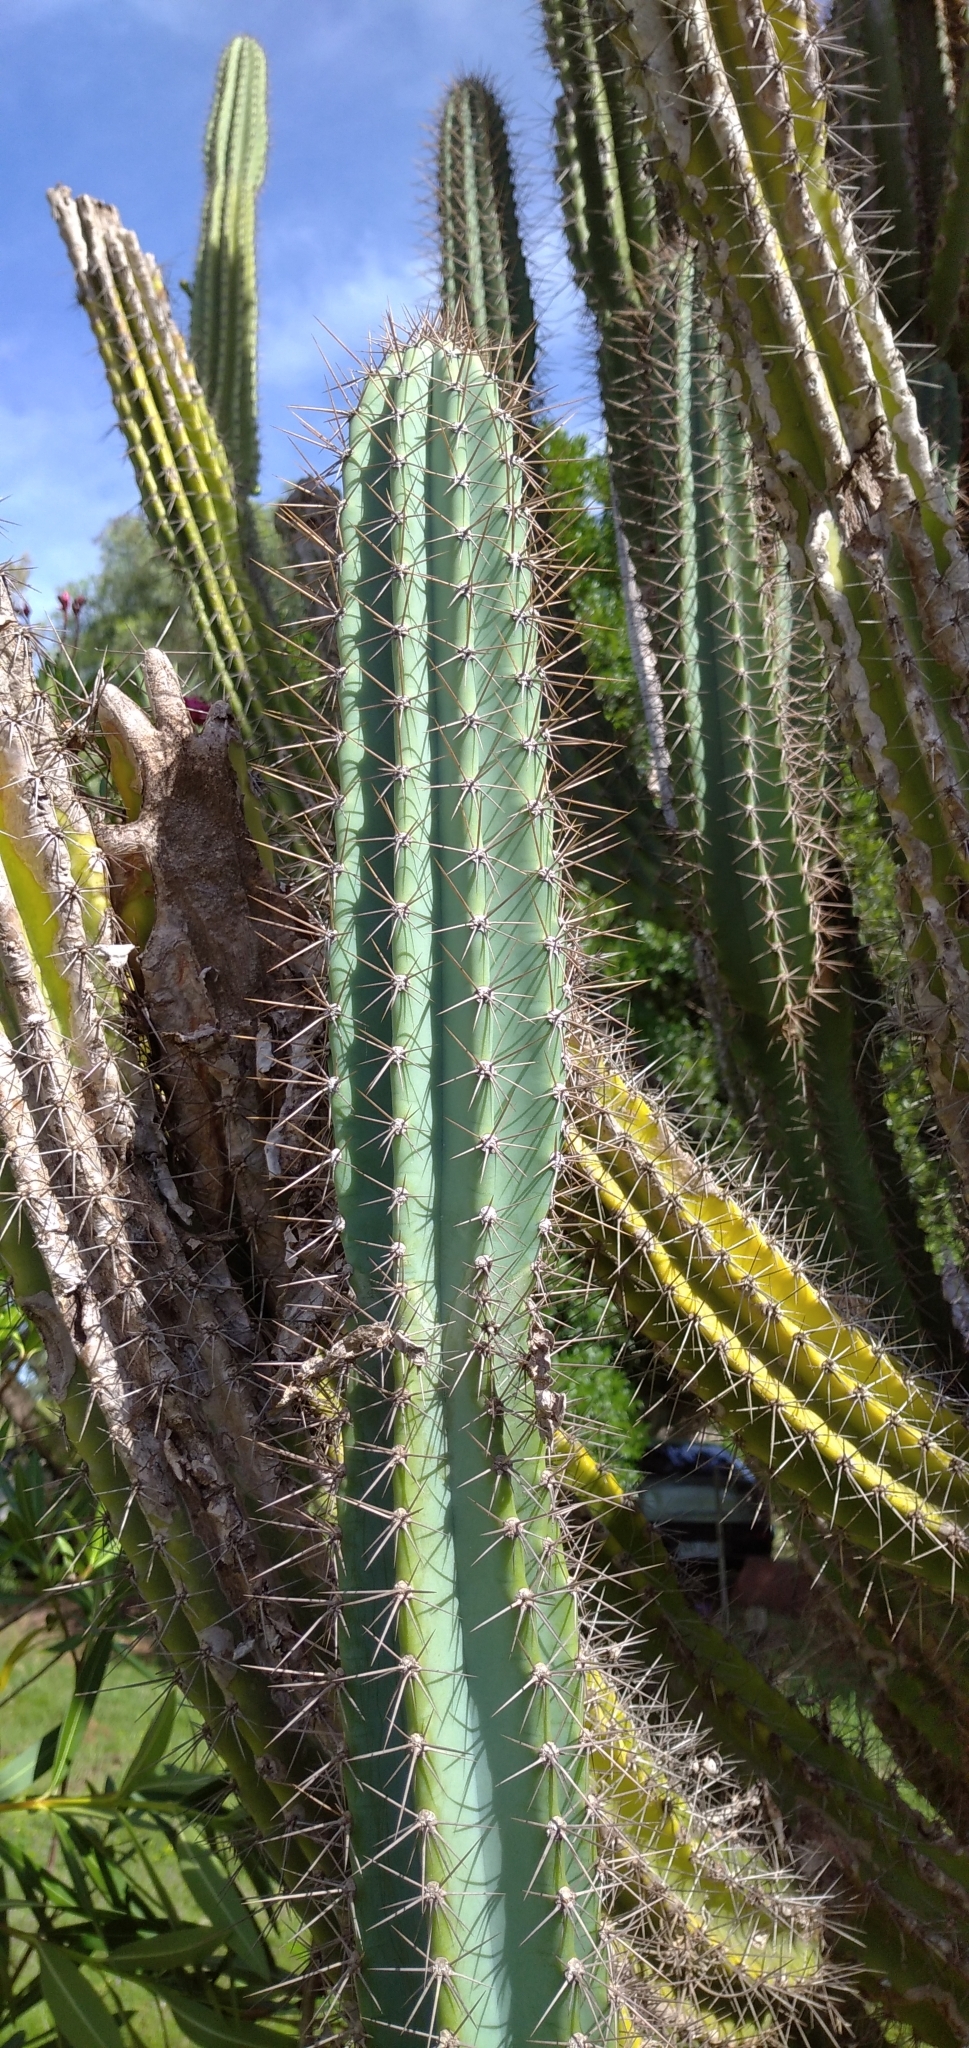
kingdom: Plantae
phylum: Tracheophyta
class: Magnoliopsida
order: Caryophyllales
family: Cactaceae
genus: Cereus
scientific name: Cereus hildmannianus
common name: Hedge cactus
